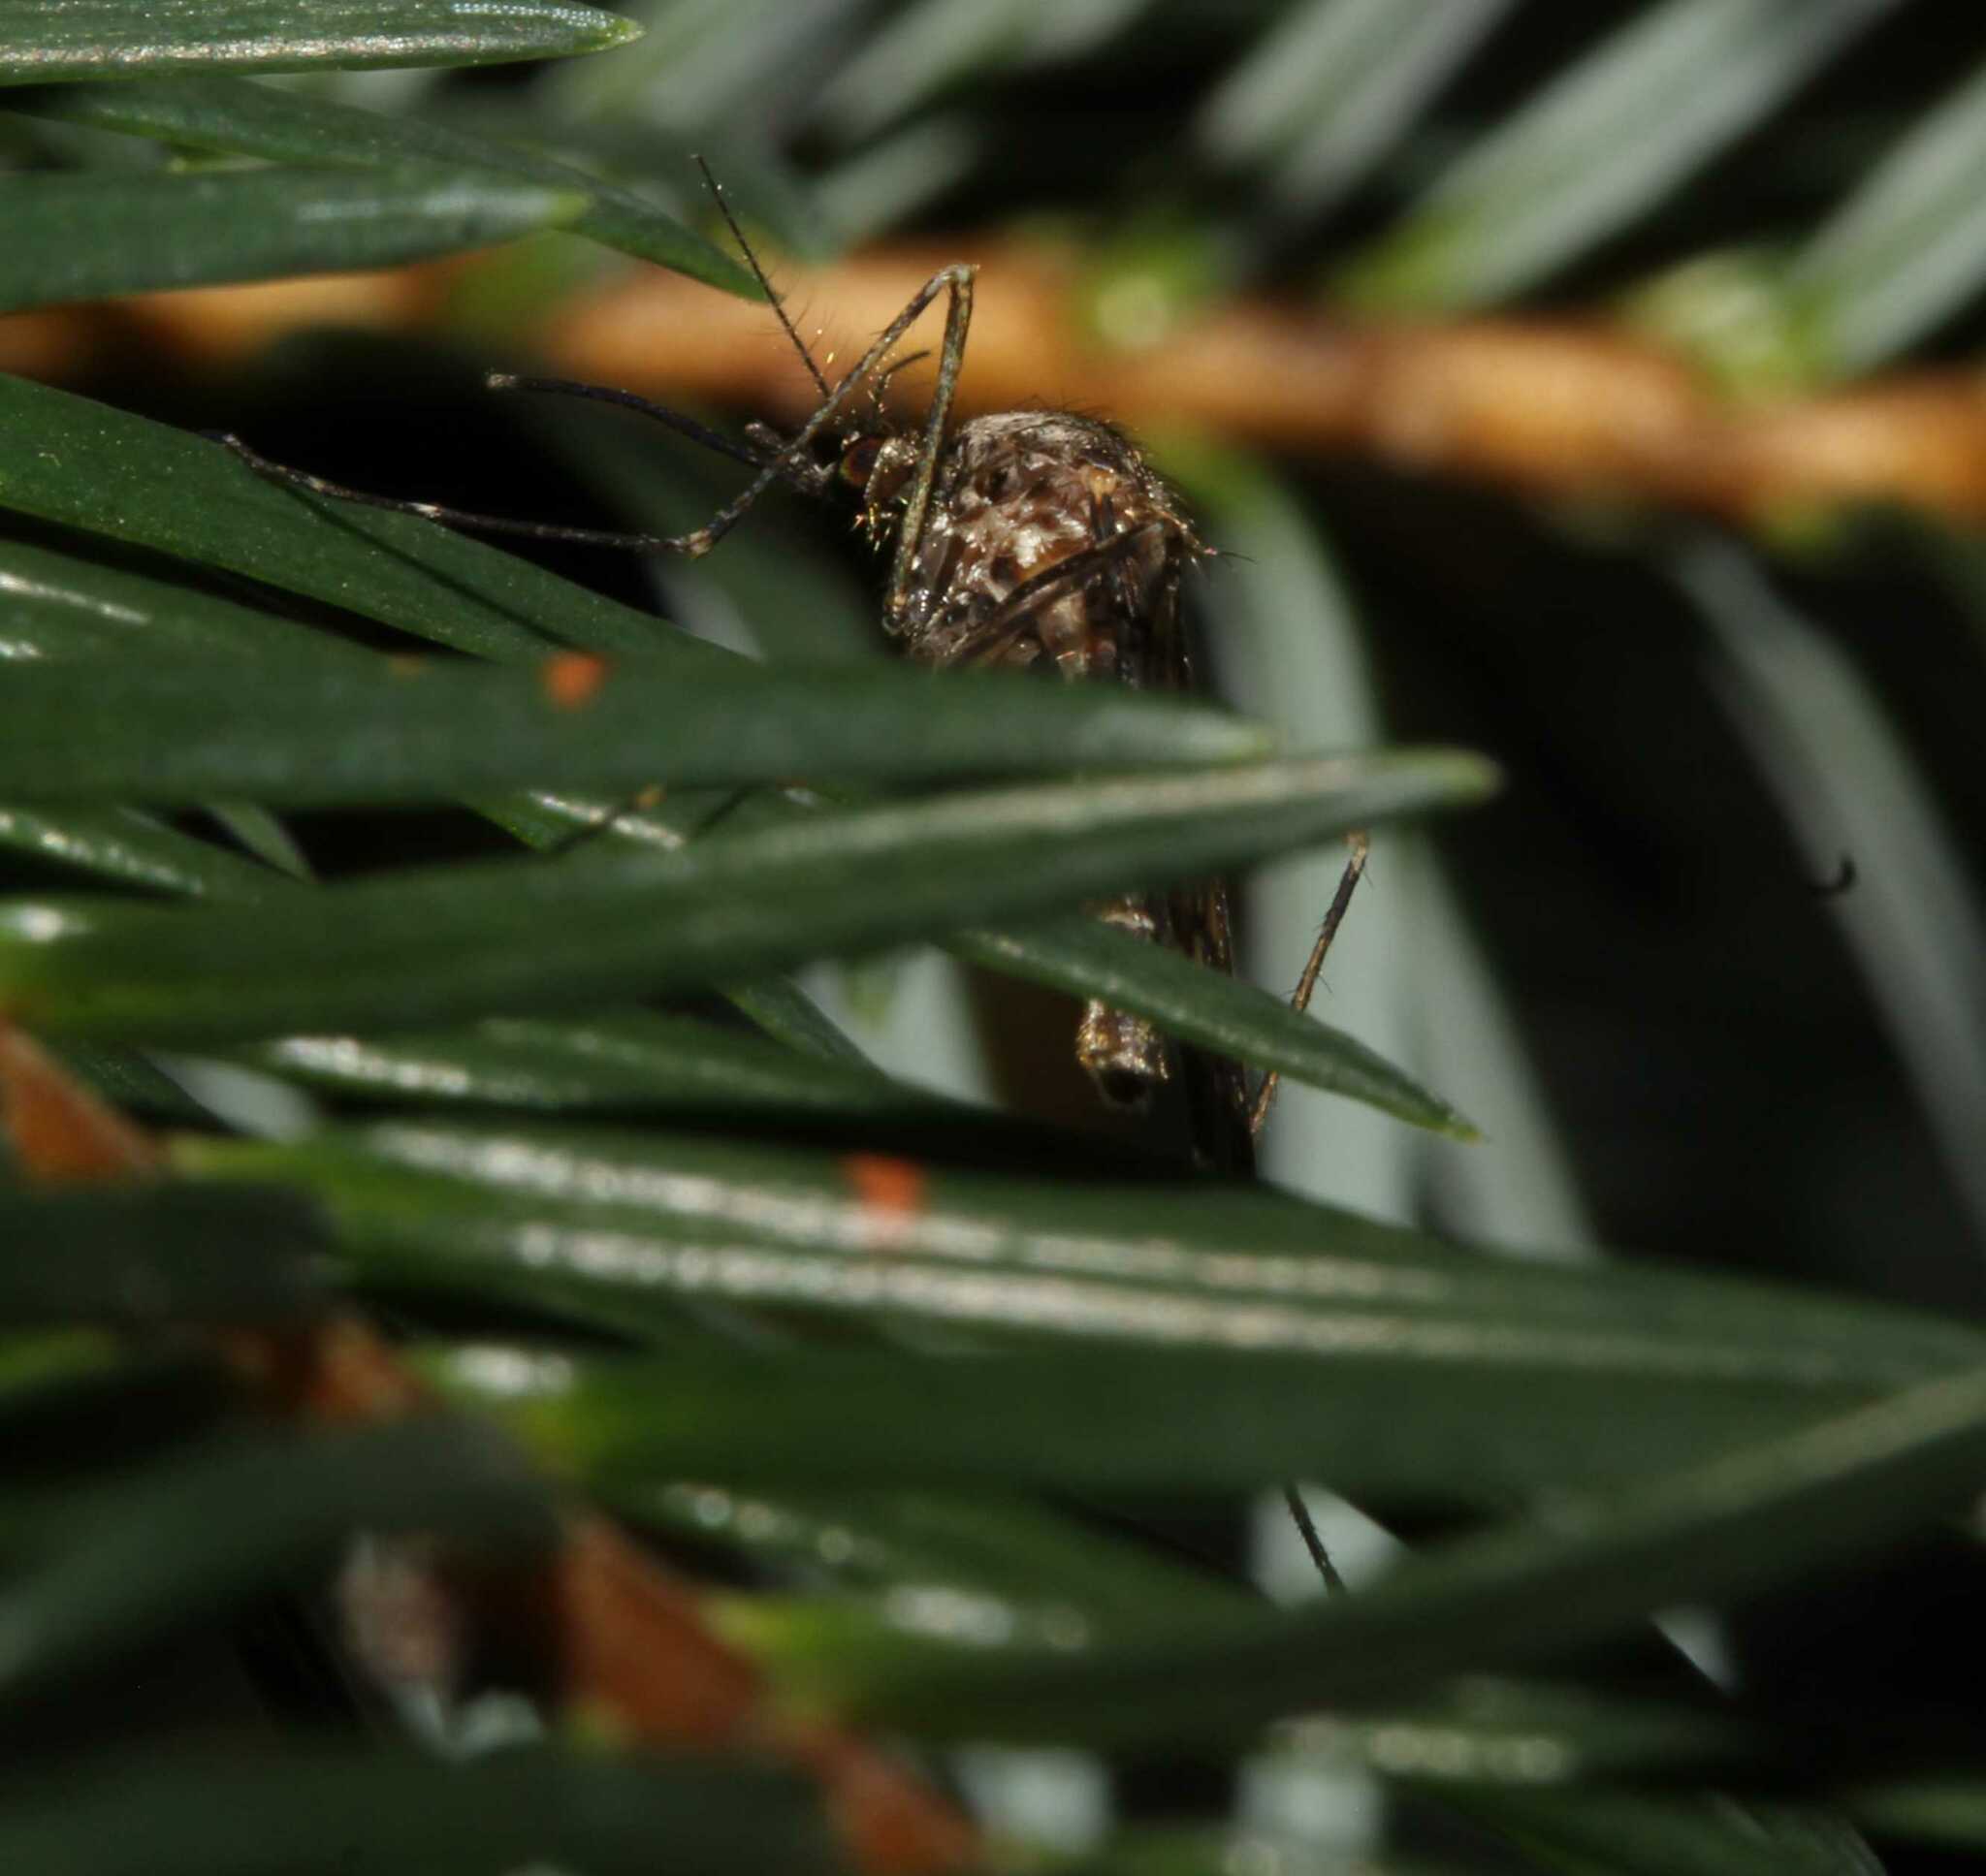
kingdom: Animalia
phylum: Arthropoda
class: Insecta
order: Diptera
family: Culicidae
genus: Culiseta
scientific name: Culiseta particeps
